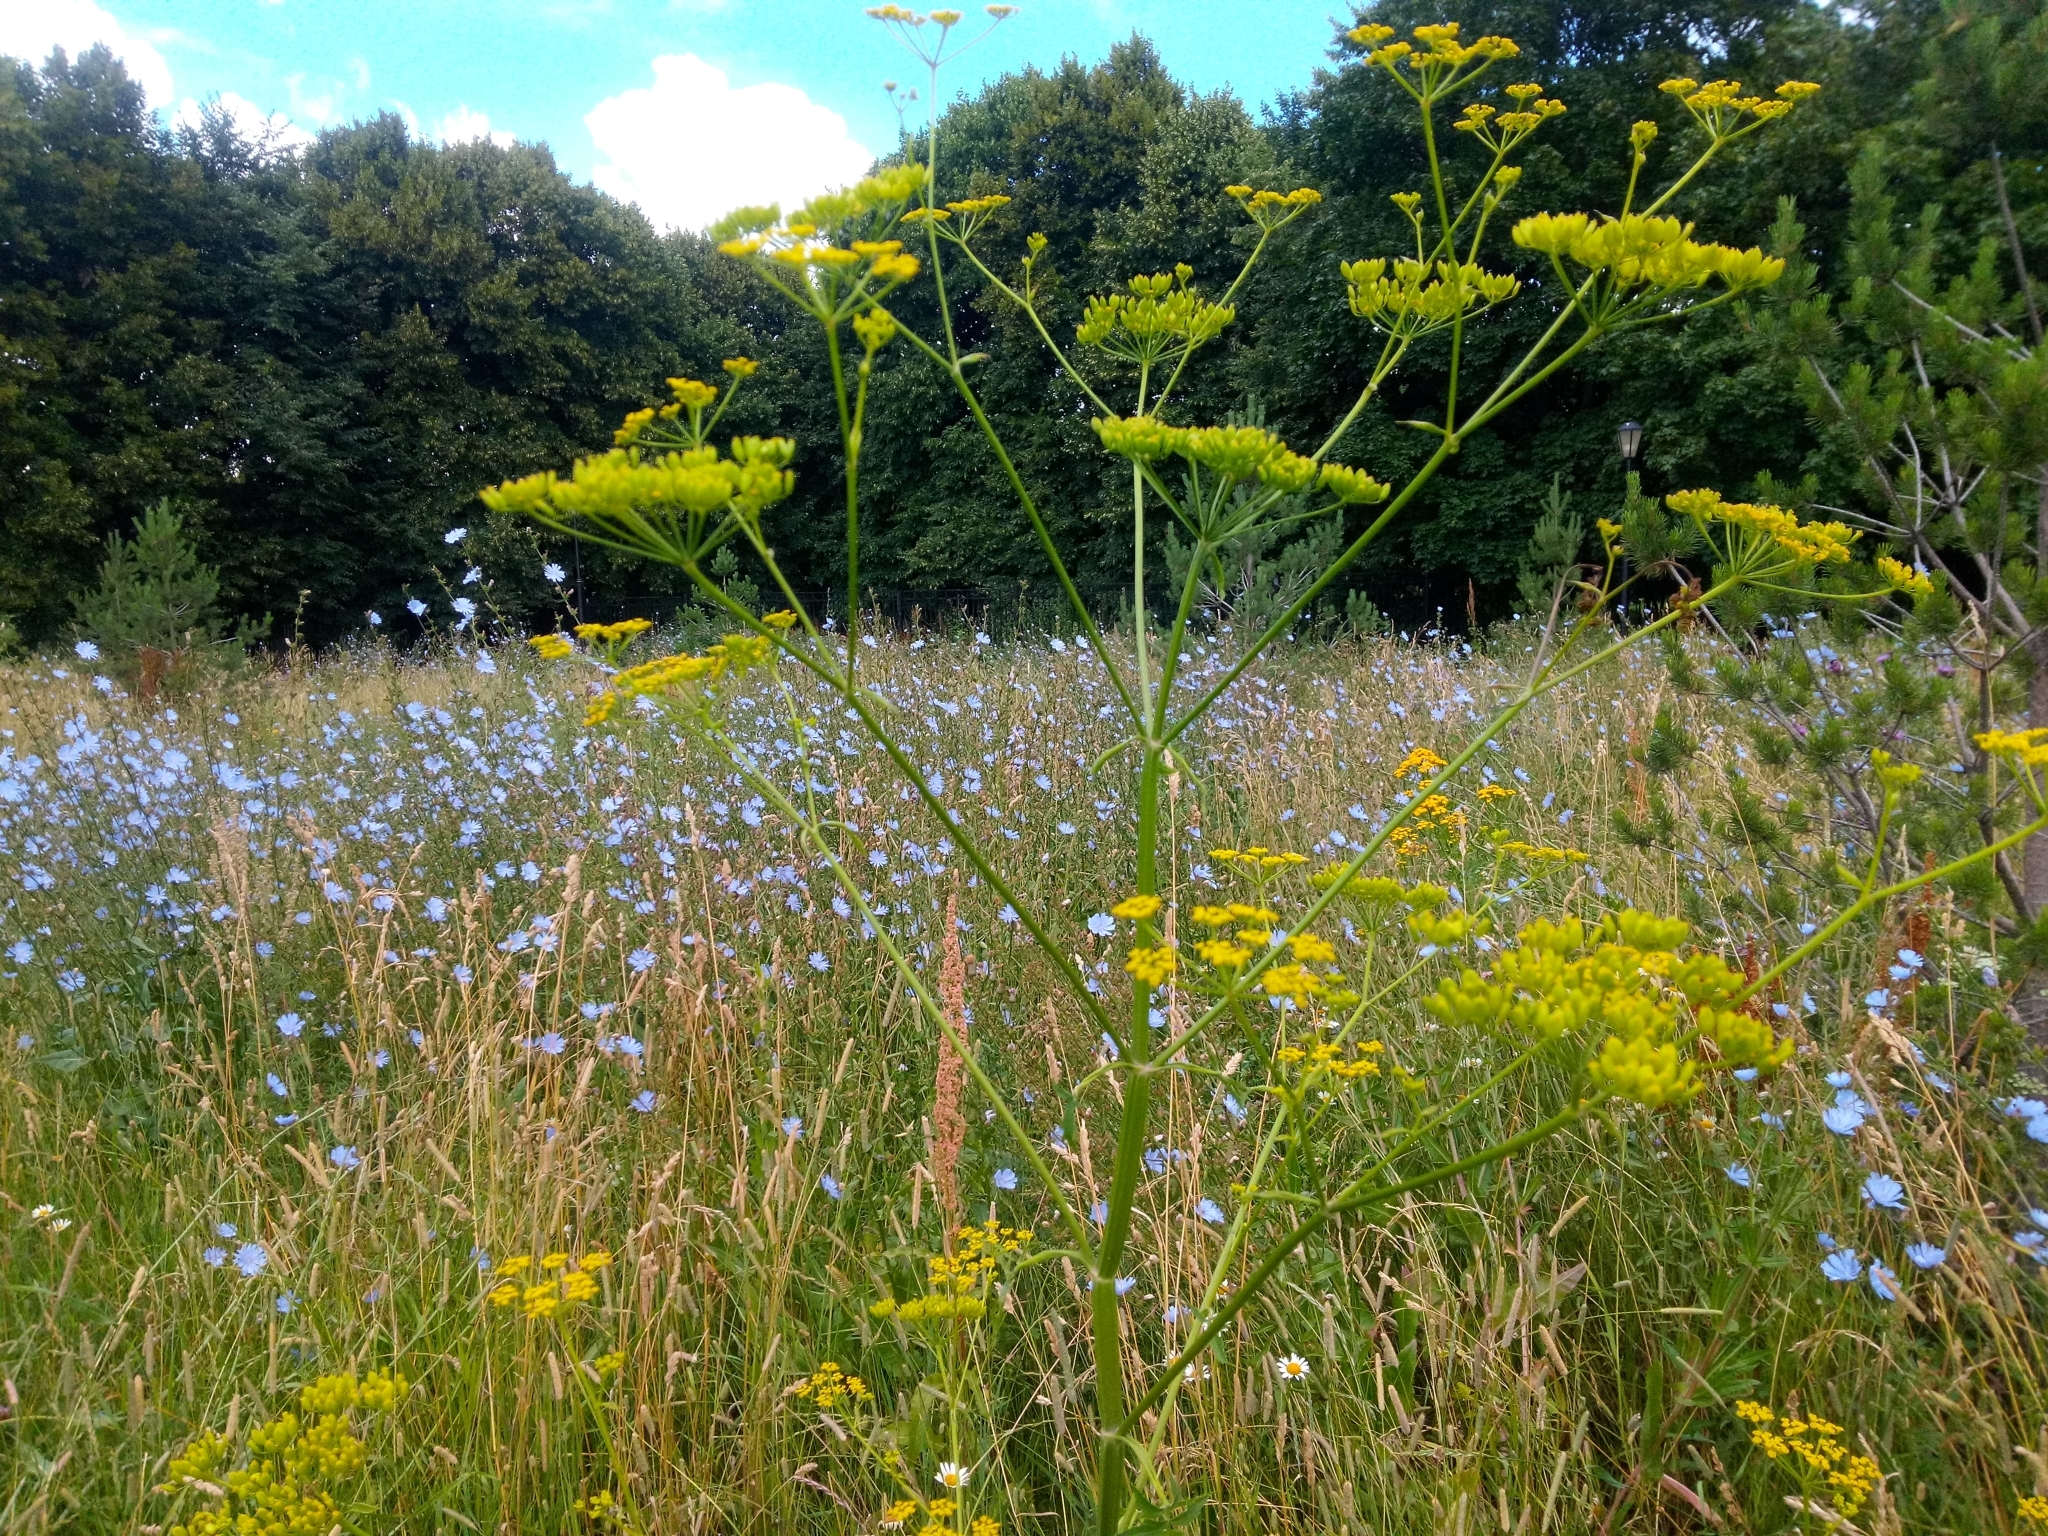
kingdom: Plantae
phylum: Tracheophyta
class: Magnoliopsida
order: Apiales
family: Apiaceae
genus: Pastinaca
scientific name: Pastinaca sativa
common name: Wild parsnip
